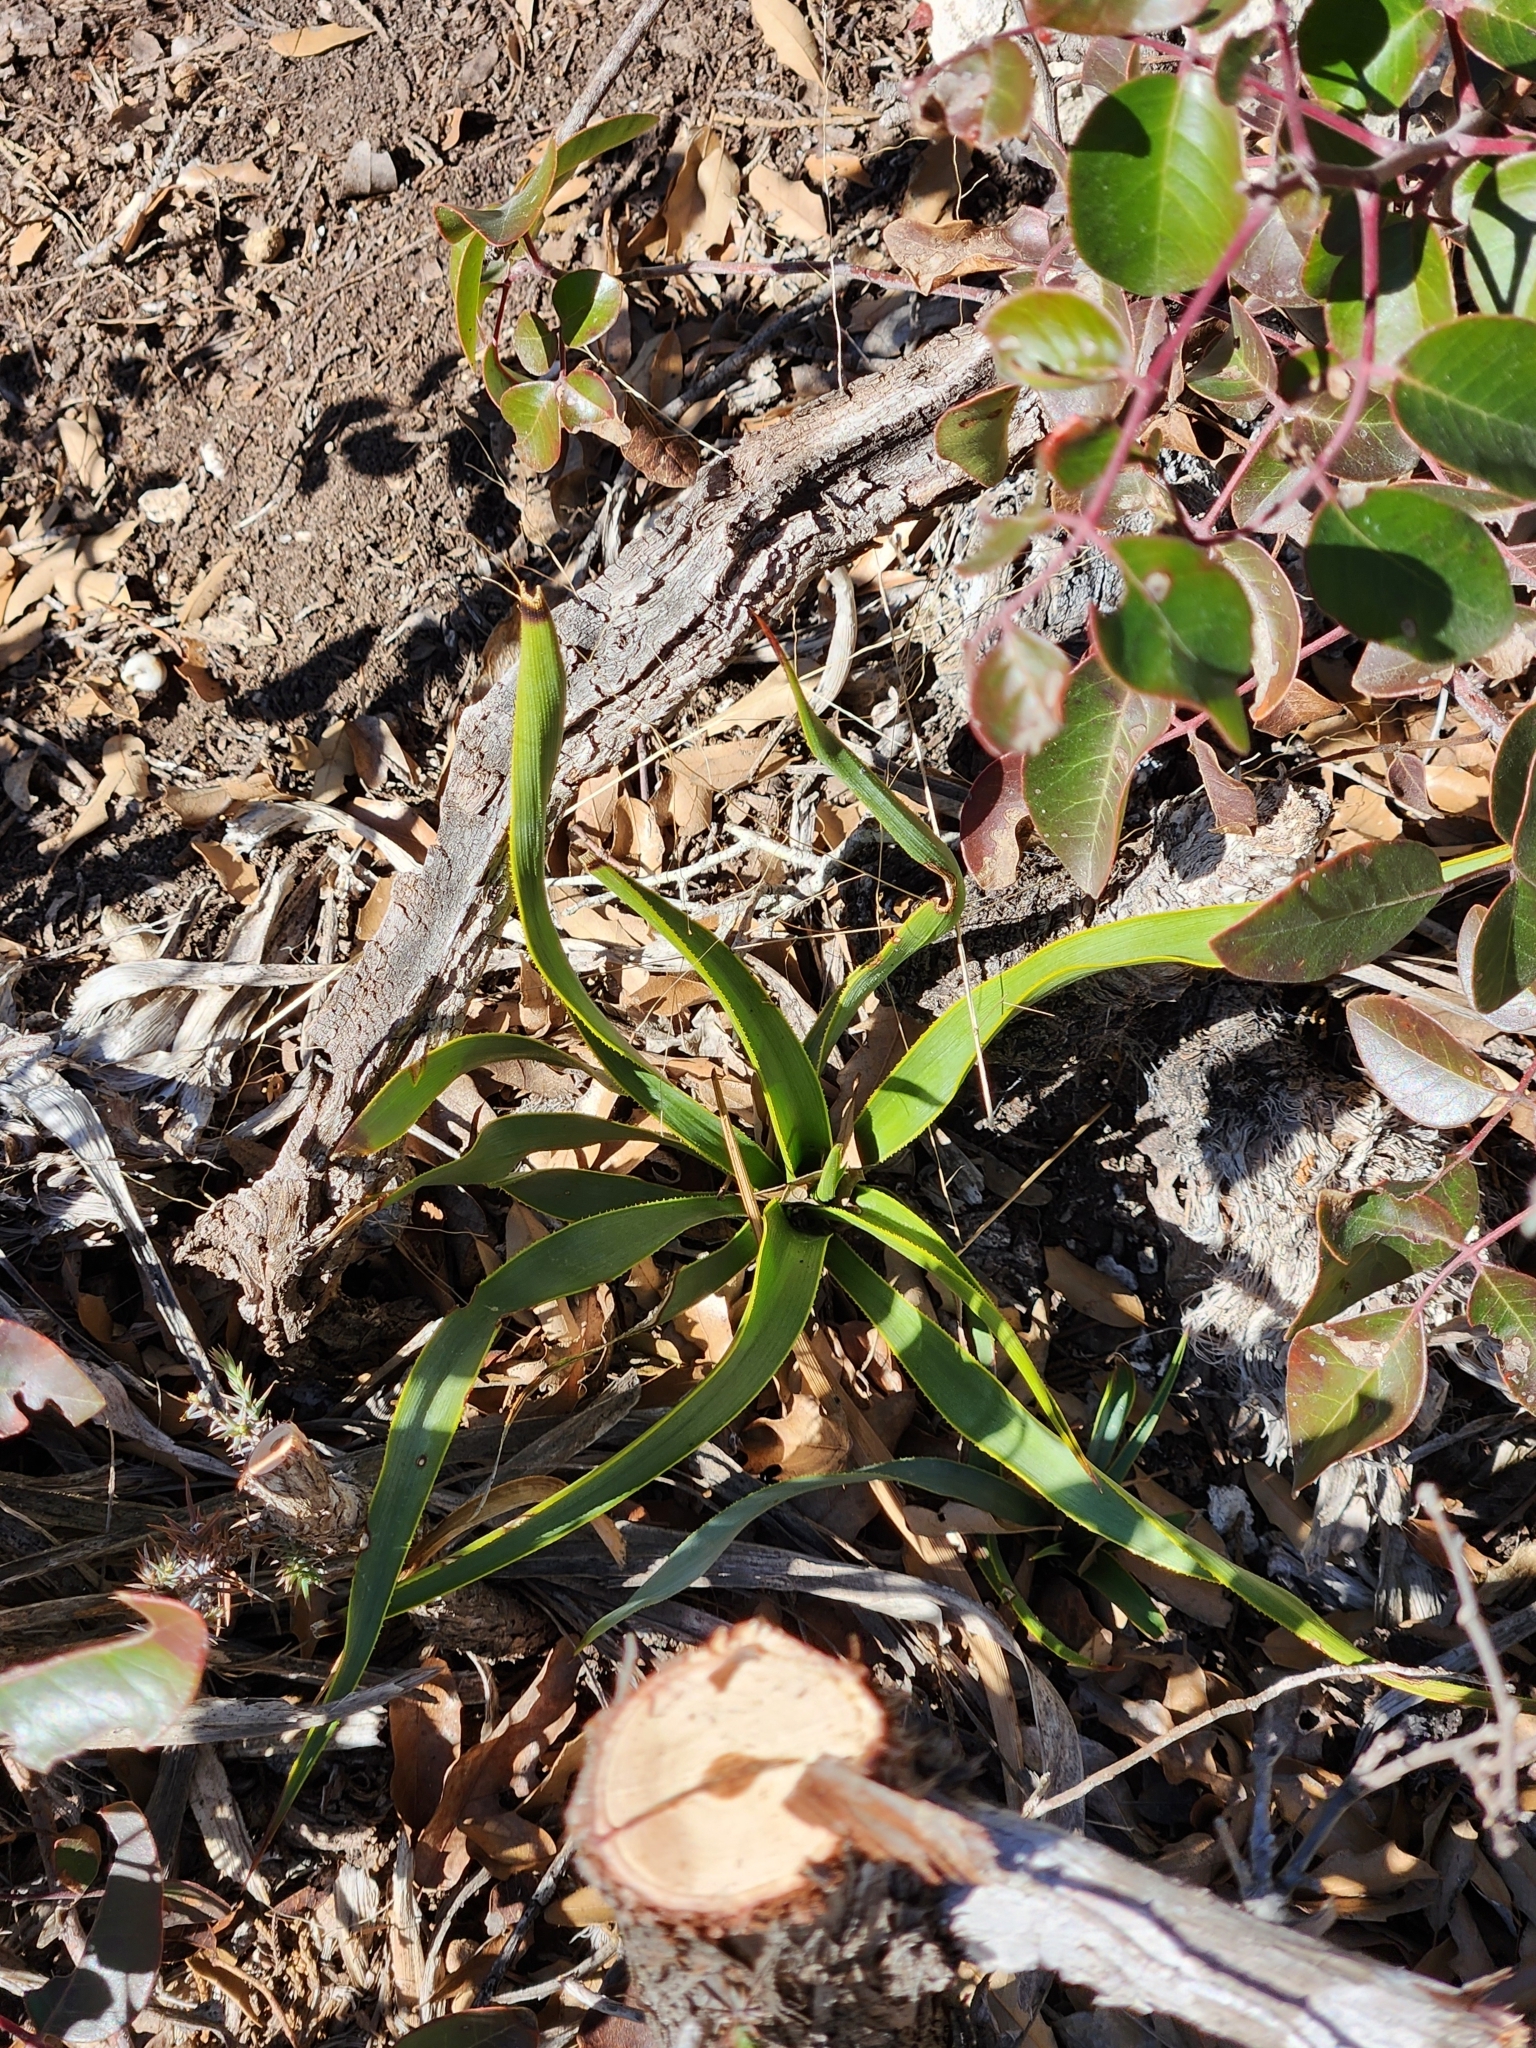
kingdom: Plantae
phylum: Tracheophyta
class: Liliopsida
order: Asparagales
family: Asparagaceae
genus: Yucca
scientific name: Yucca rupicola
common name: Twisted-leaf spanish-dagger
